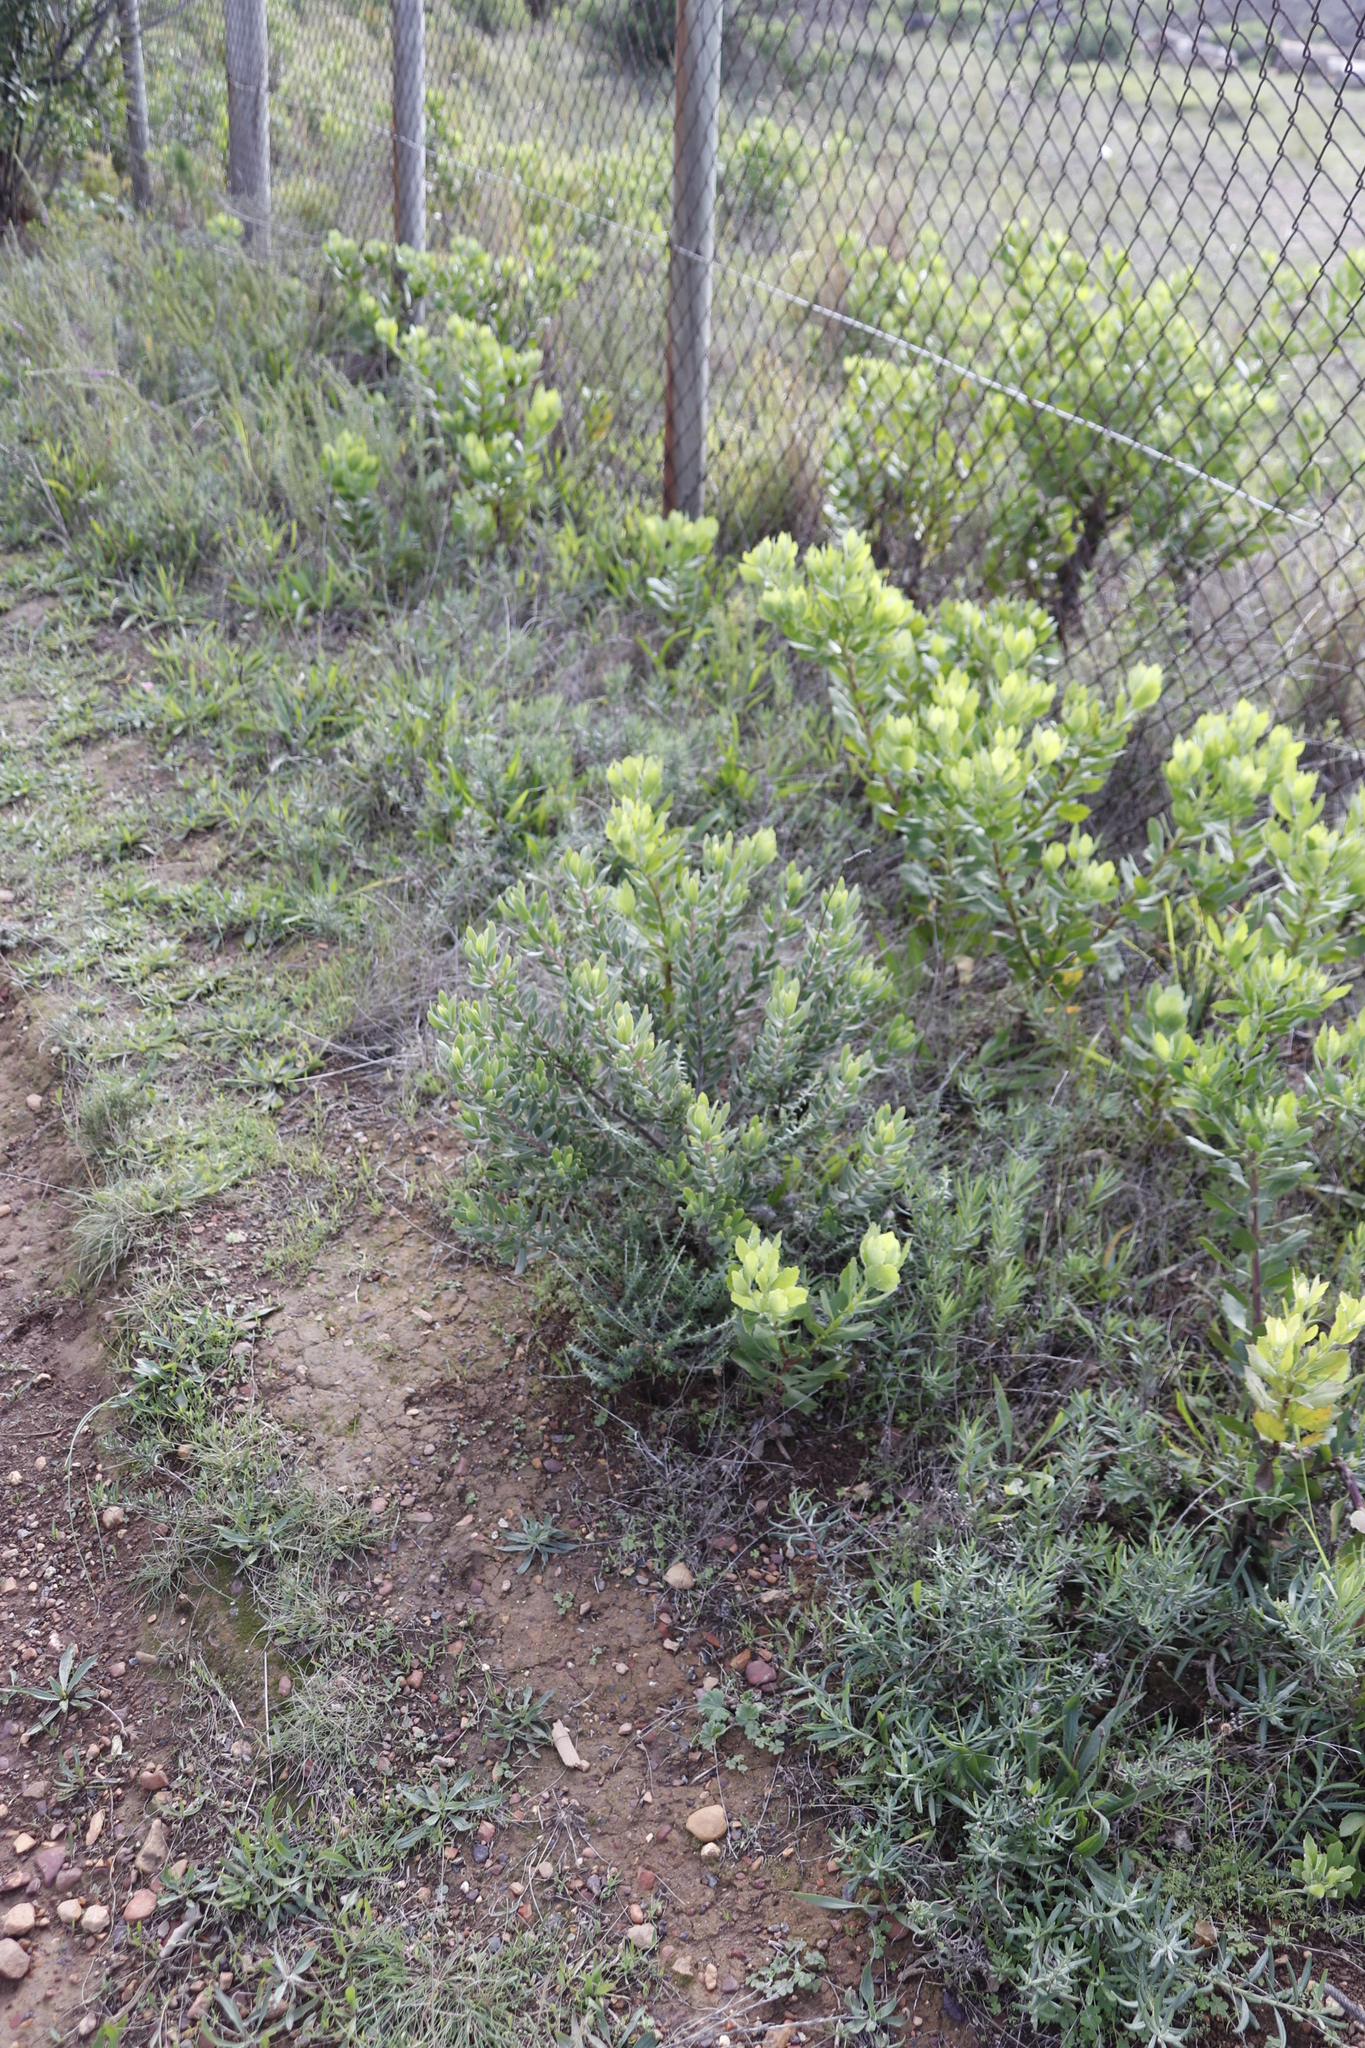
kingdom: Plantae
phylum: Tracheophyta
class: Magnoliopsida
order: Boraginales
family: Boraginaceae
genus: Lobostemon
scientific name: Lobostemon fruticosus
